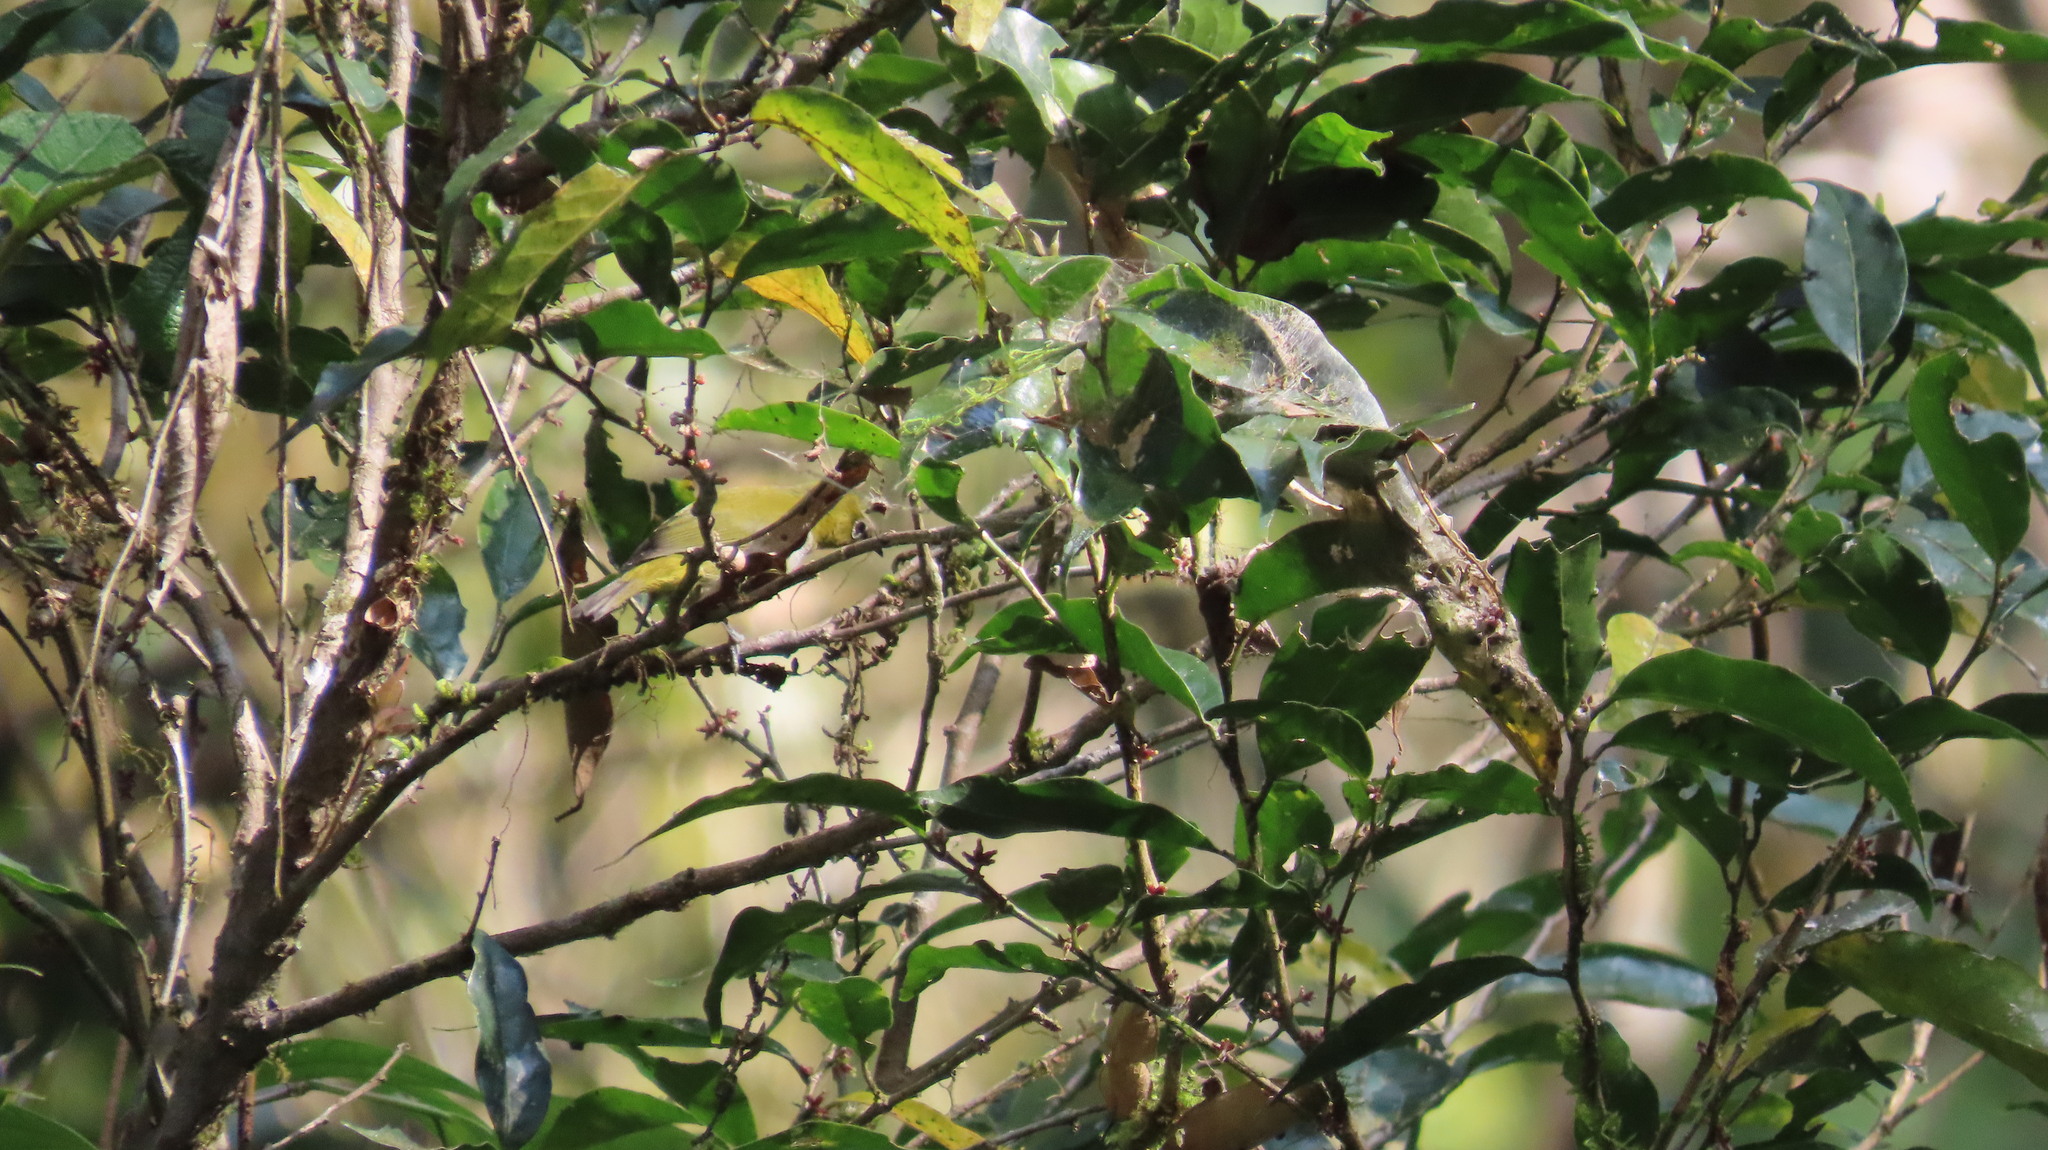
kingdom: Animalia
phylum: Chordata
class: Aves
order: Passeriformes
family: Zosteropidae
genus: Zosterops
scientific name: Zosterops palpebrosus
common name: Oriental white-eye
